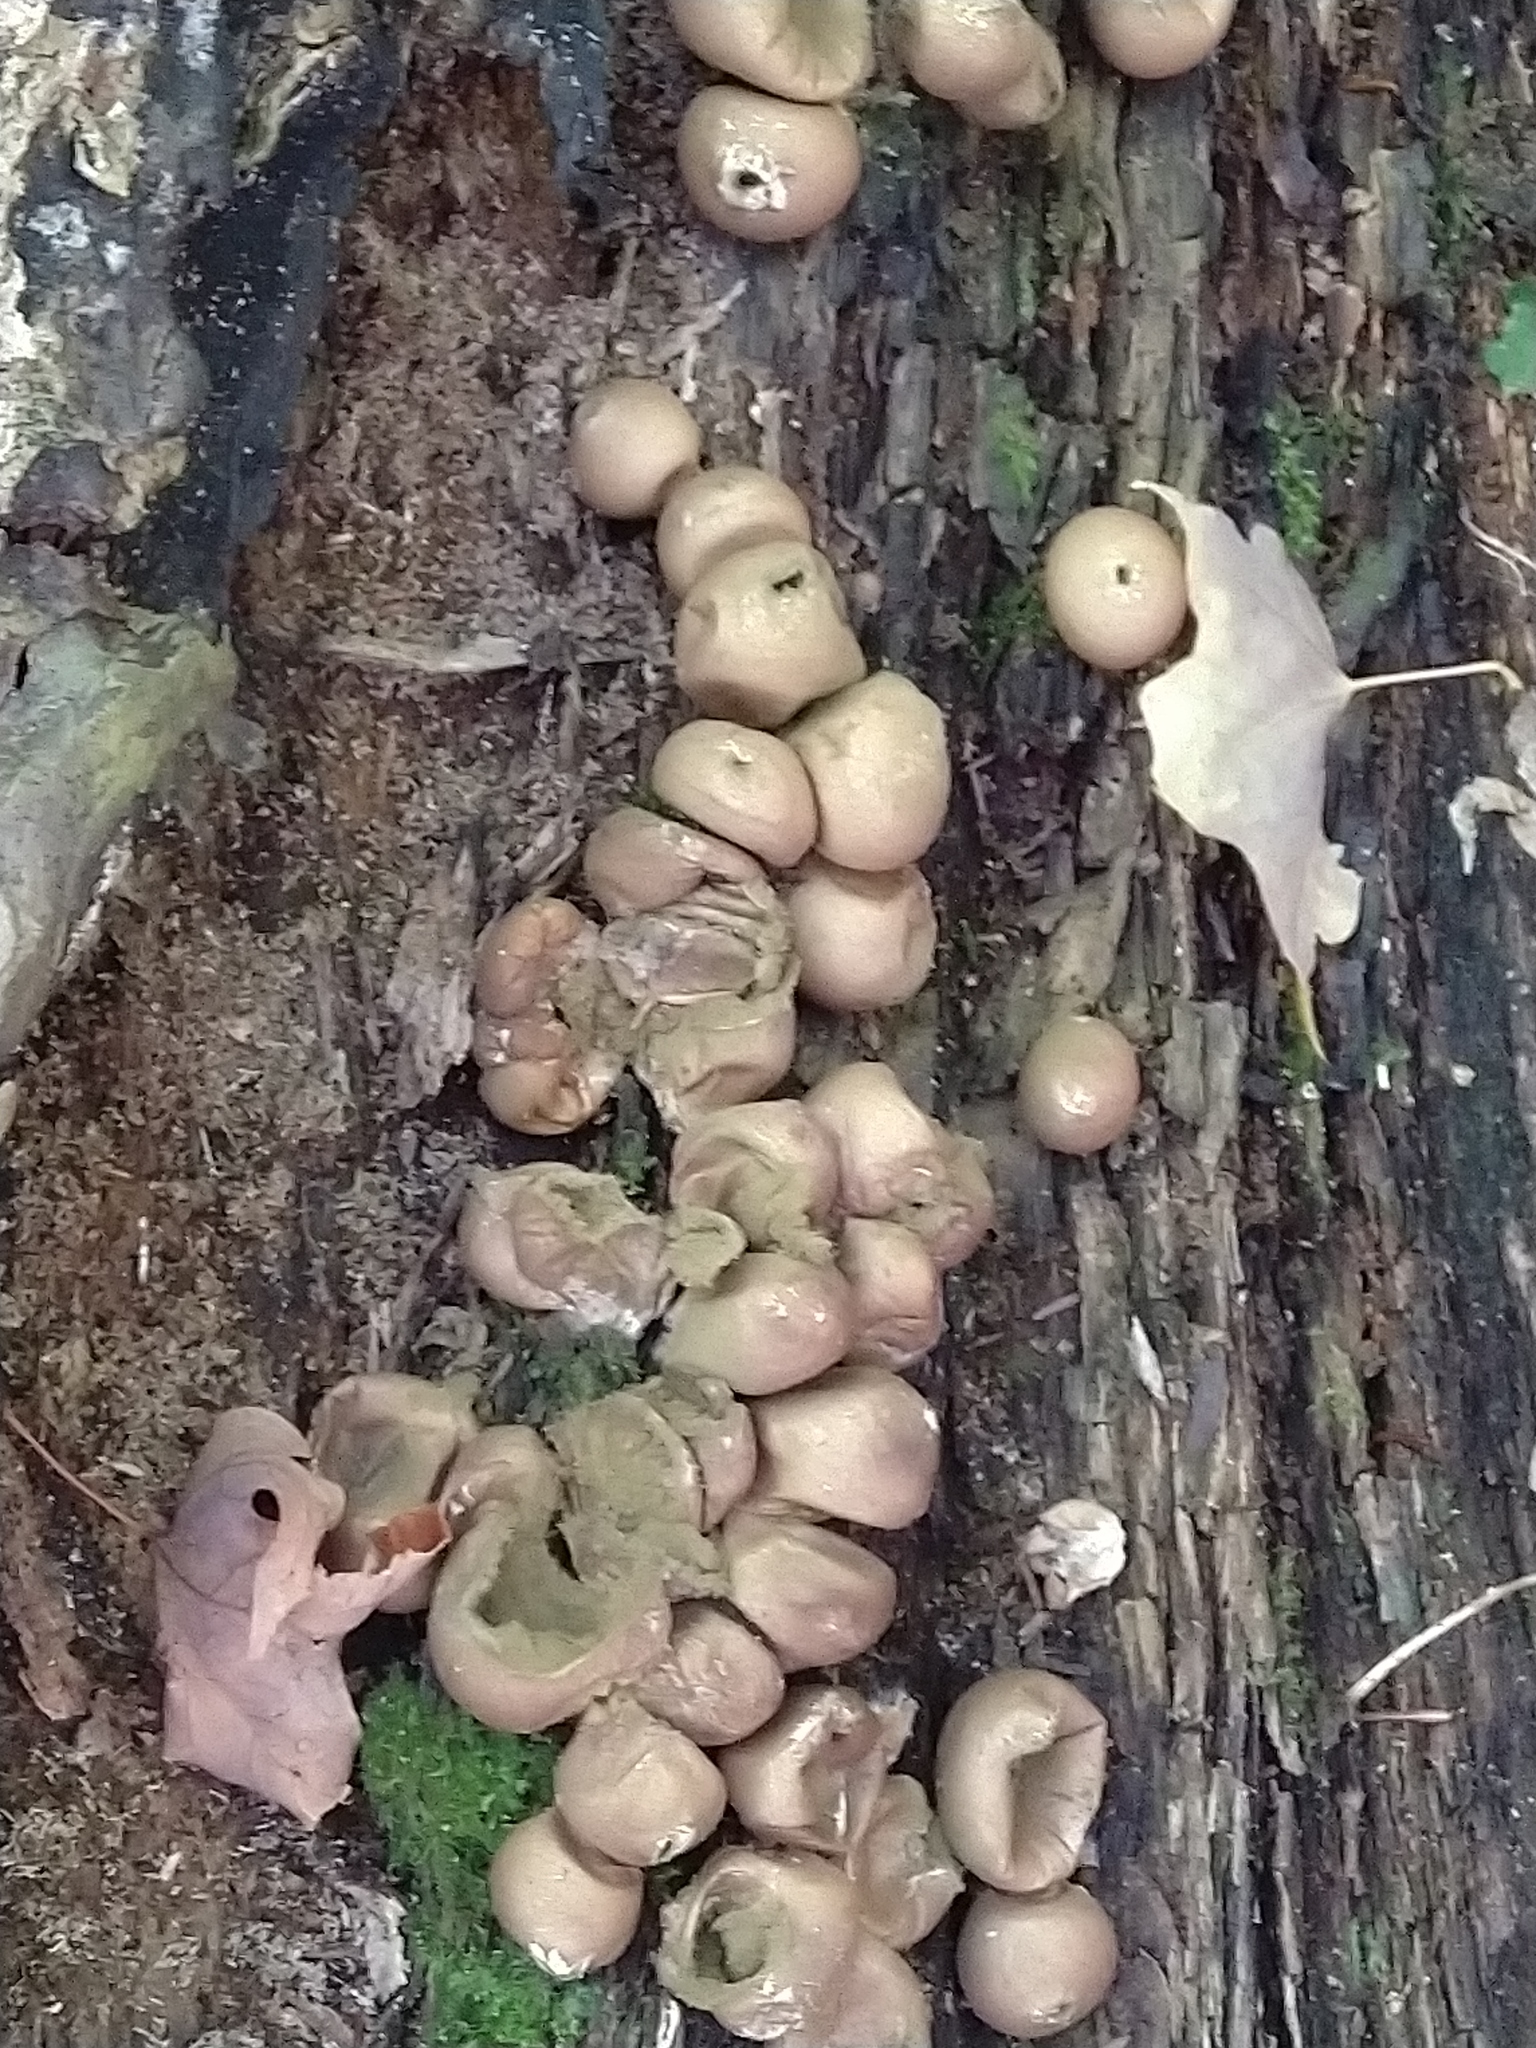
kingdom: Fungi
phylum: Basidiomycota
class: Agaricomycetes
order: Agaricales
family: Lycoperdaceae
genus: Apioperdon
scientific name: Apioperdon pyriforme
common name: Pear-shaped puffball
